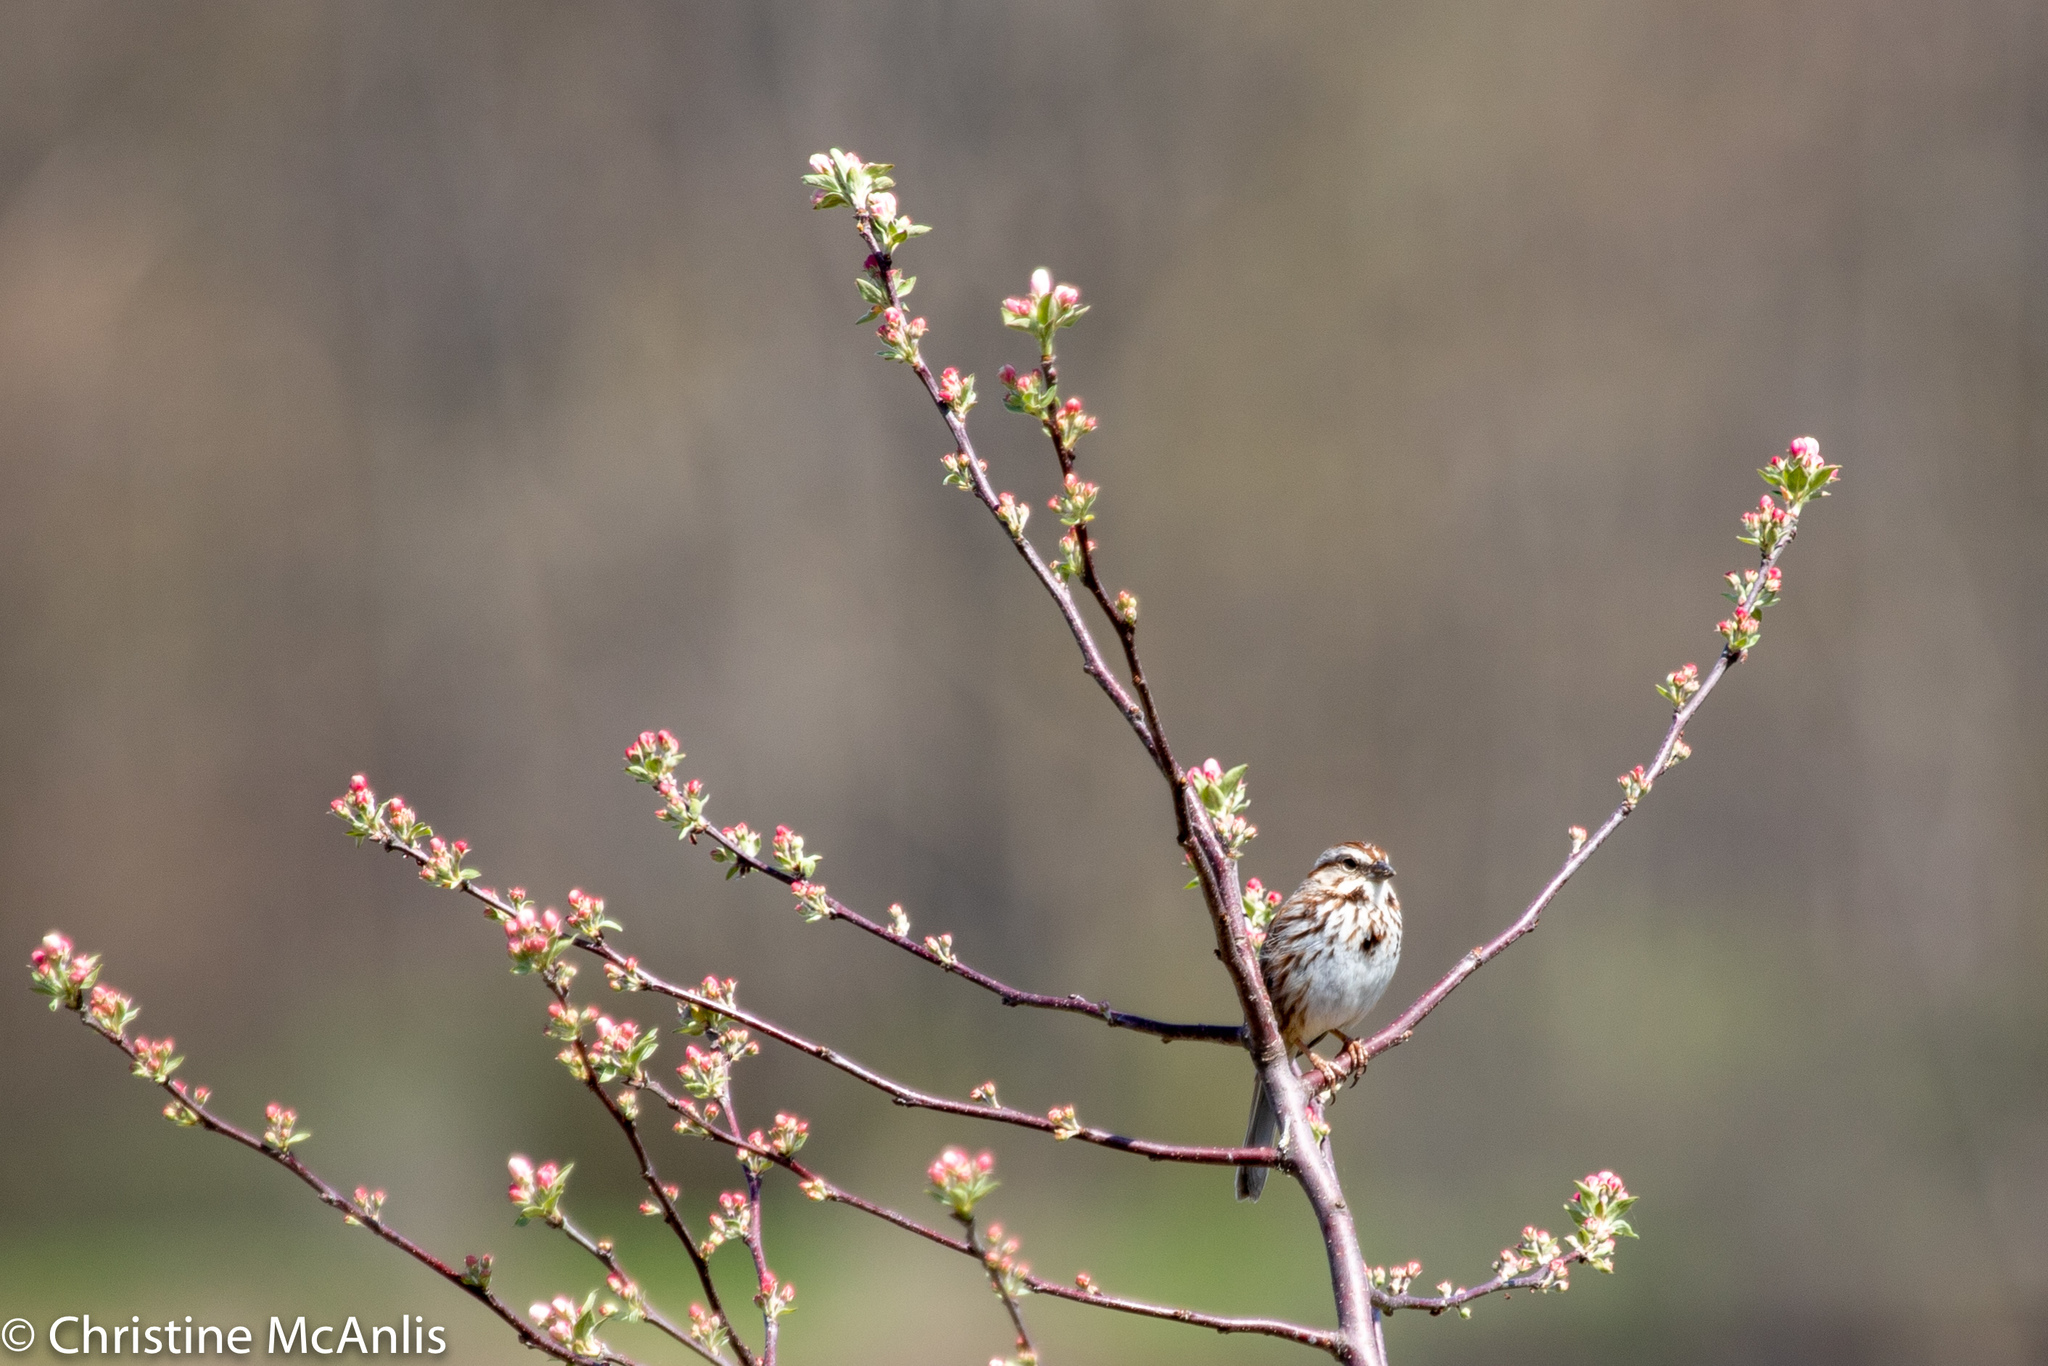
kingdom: Animalia
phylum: Chordata
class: Aves
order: Passeriformes
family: Passerellidae
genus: Melospiza
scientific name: Melospiza melodia
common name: Song sparrow
